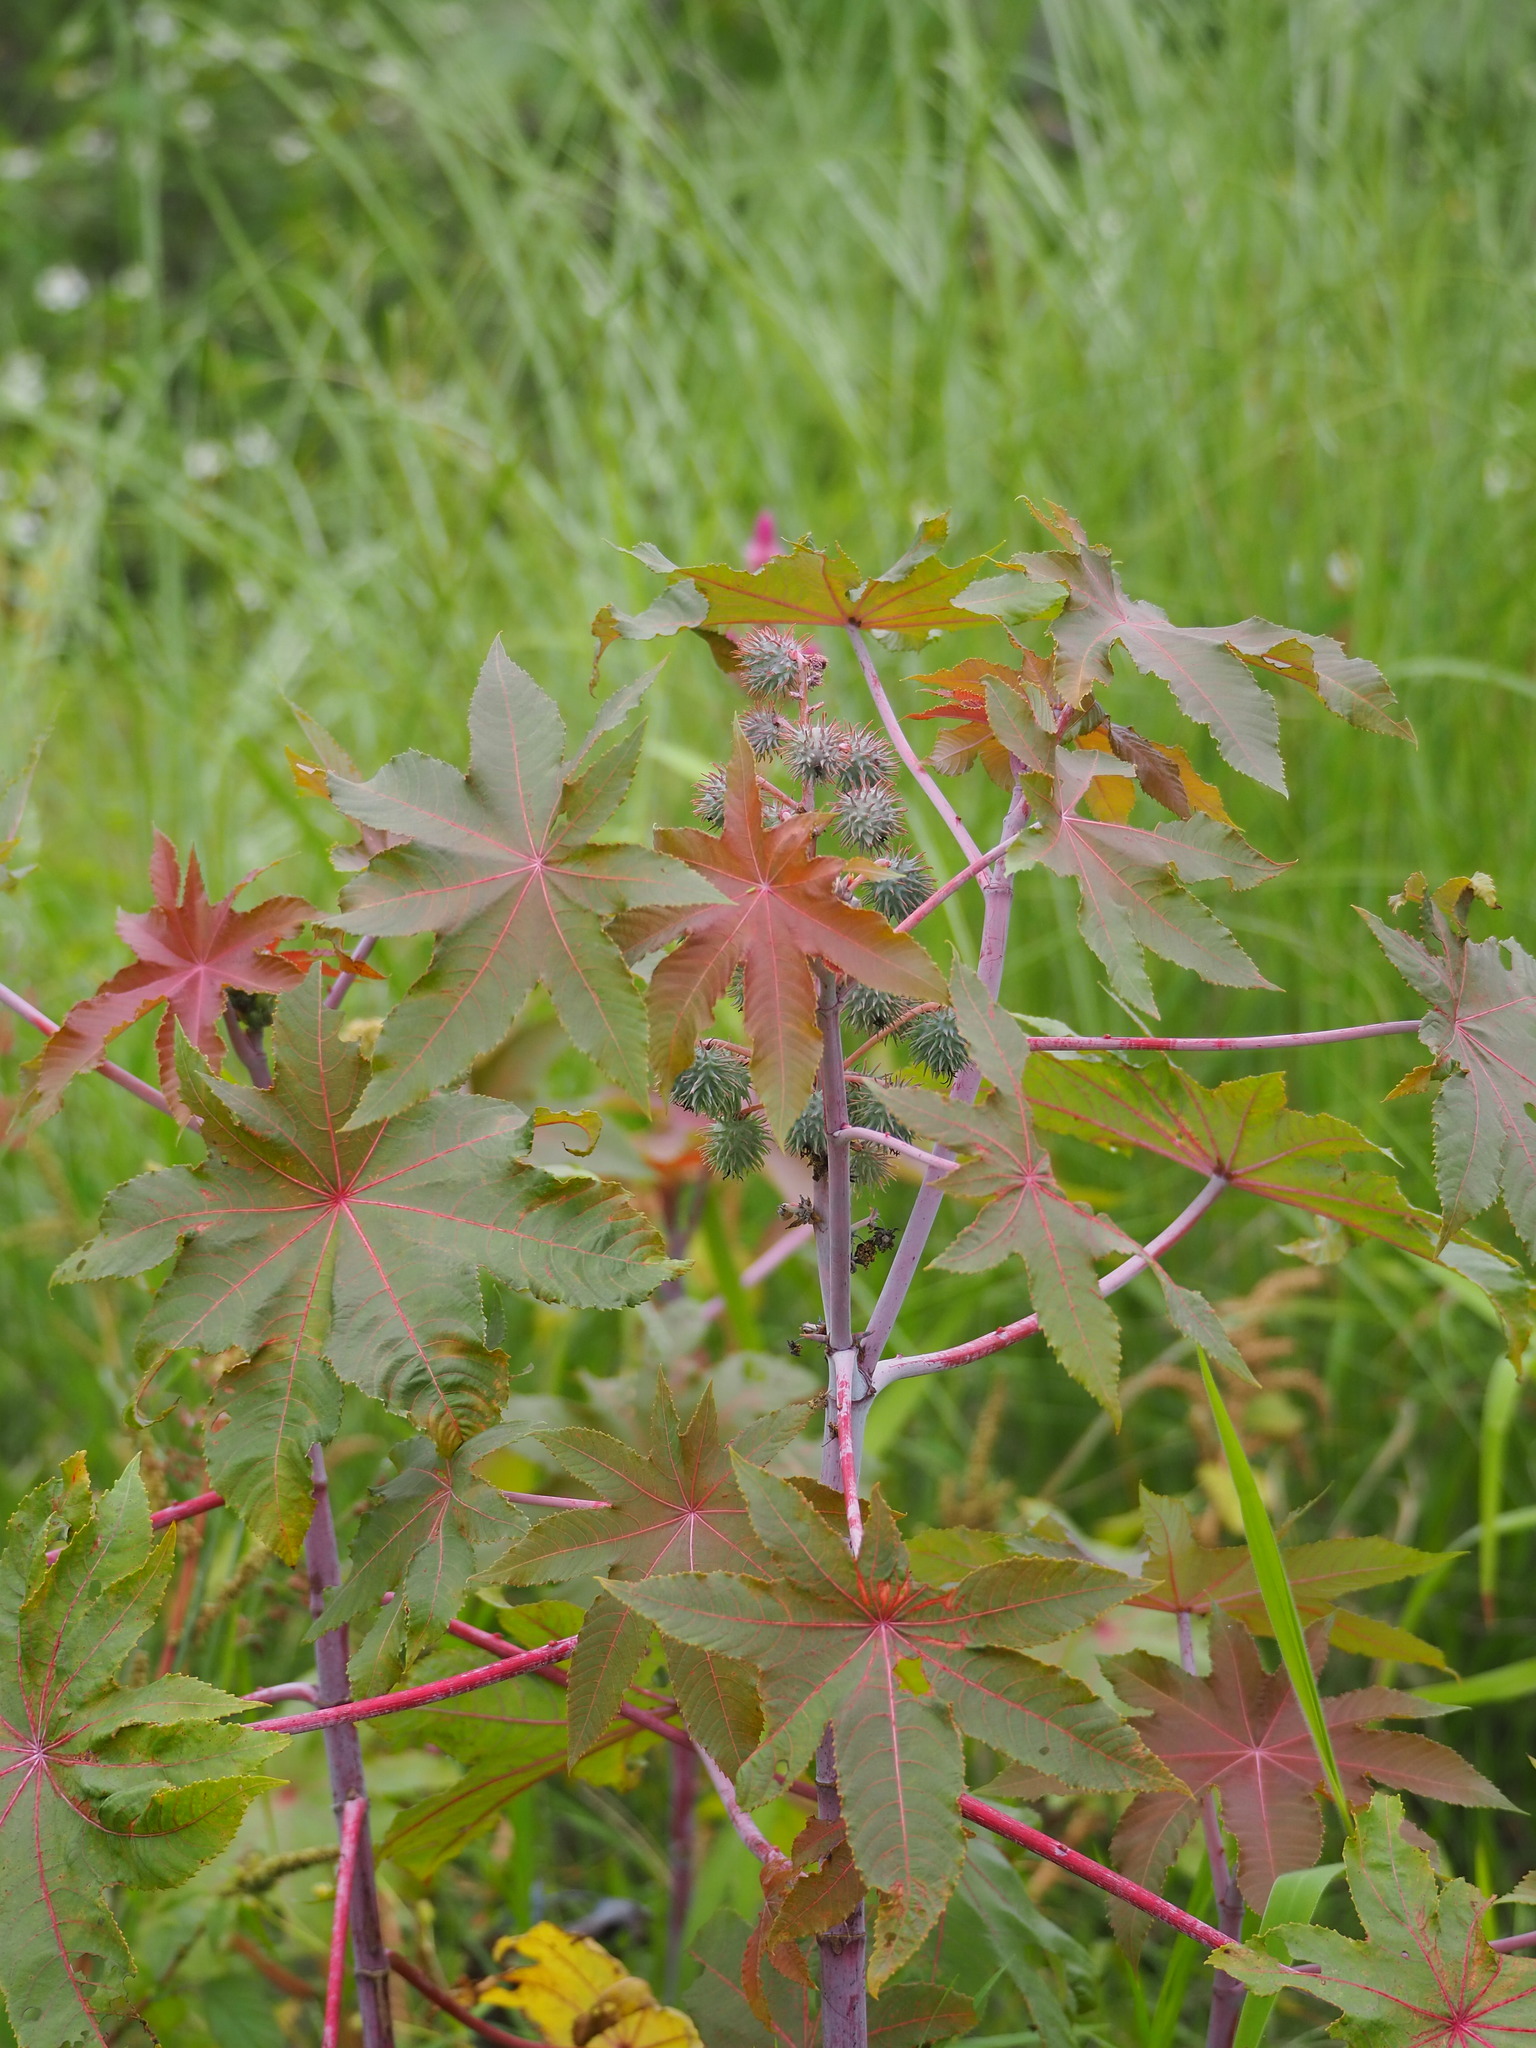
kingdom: Plantae
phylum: Tracheophyta
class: Magnoliopsida
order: Malpighiales
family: Euphorbiaceae
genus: Ricinus
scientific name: Ricinus communis
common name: Castor-oil-plant
